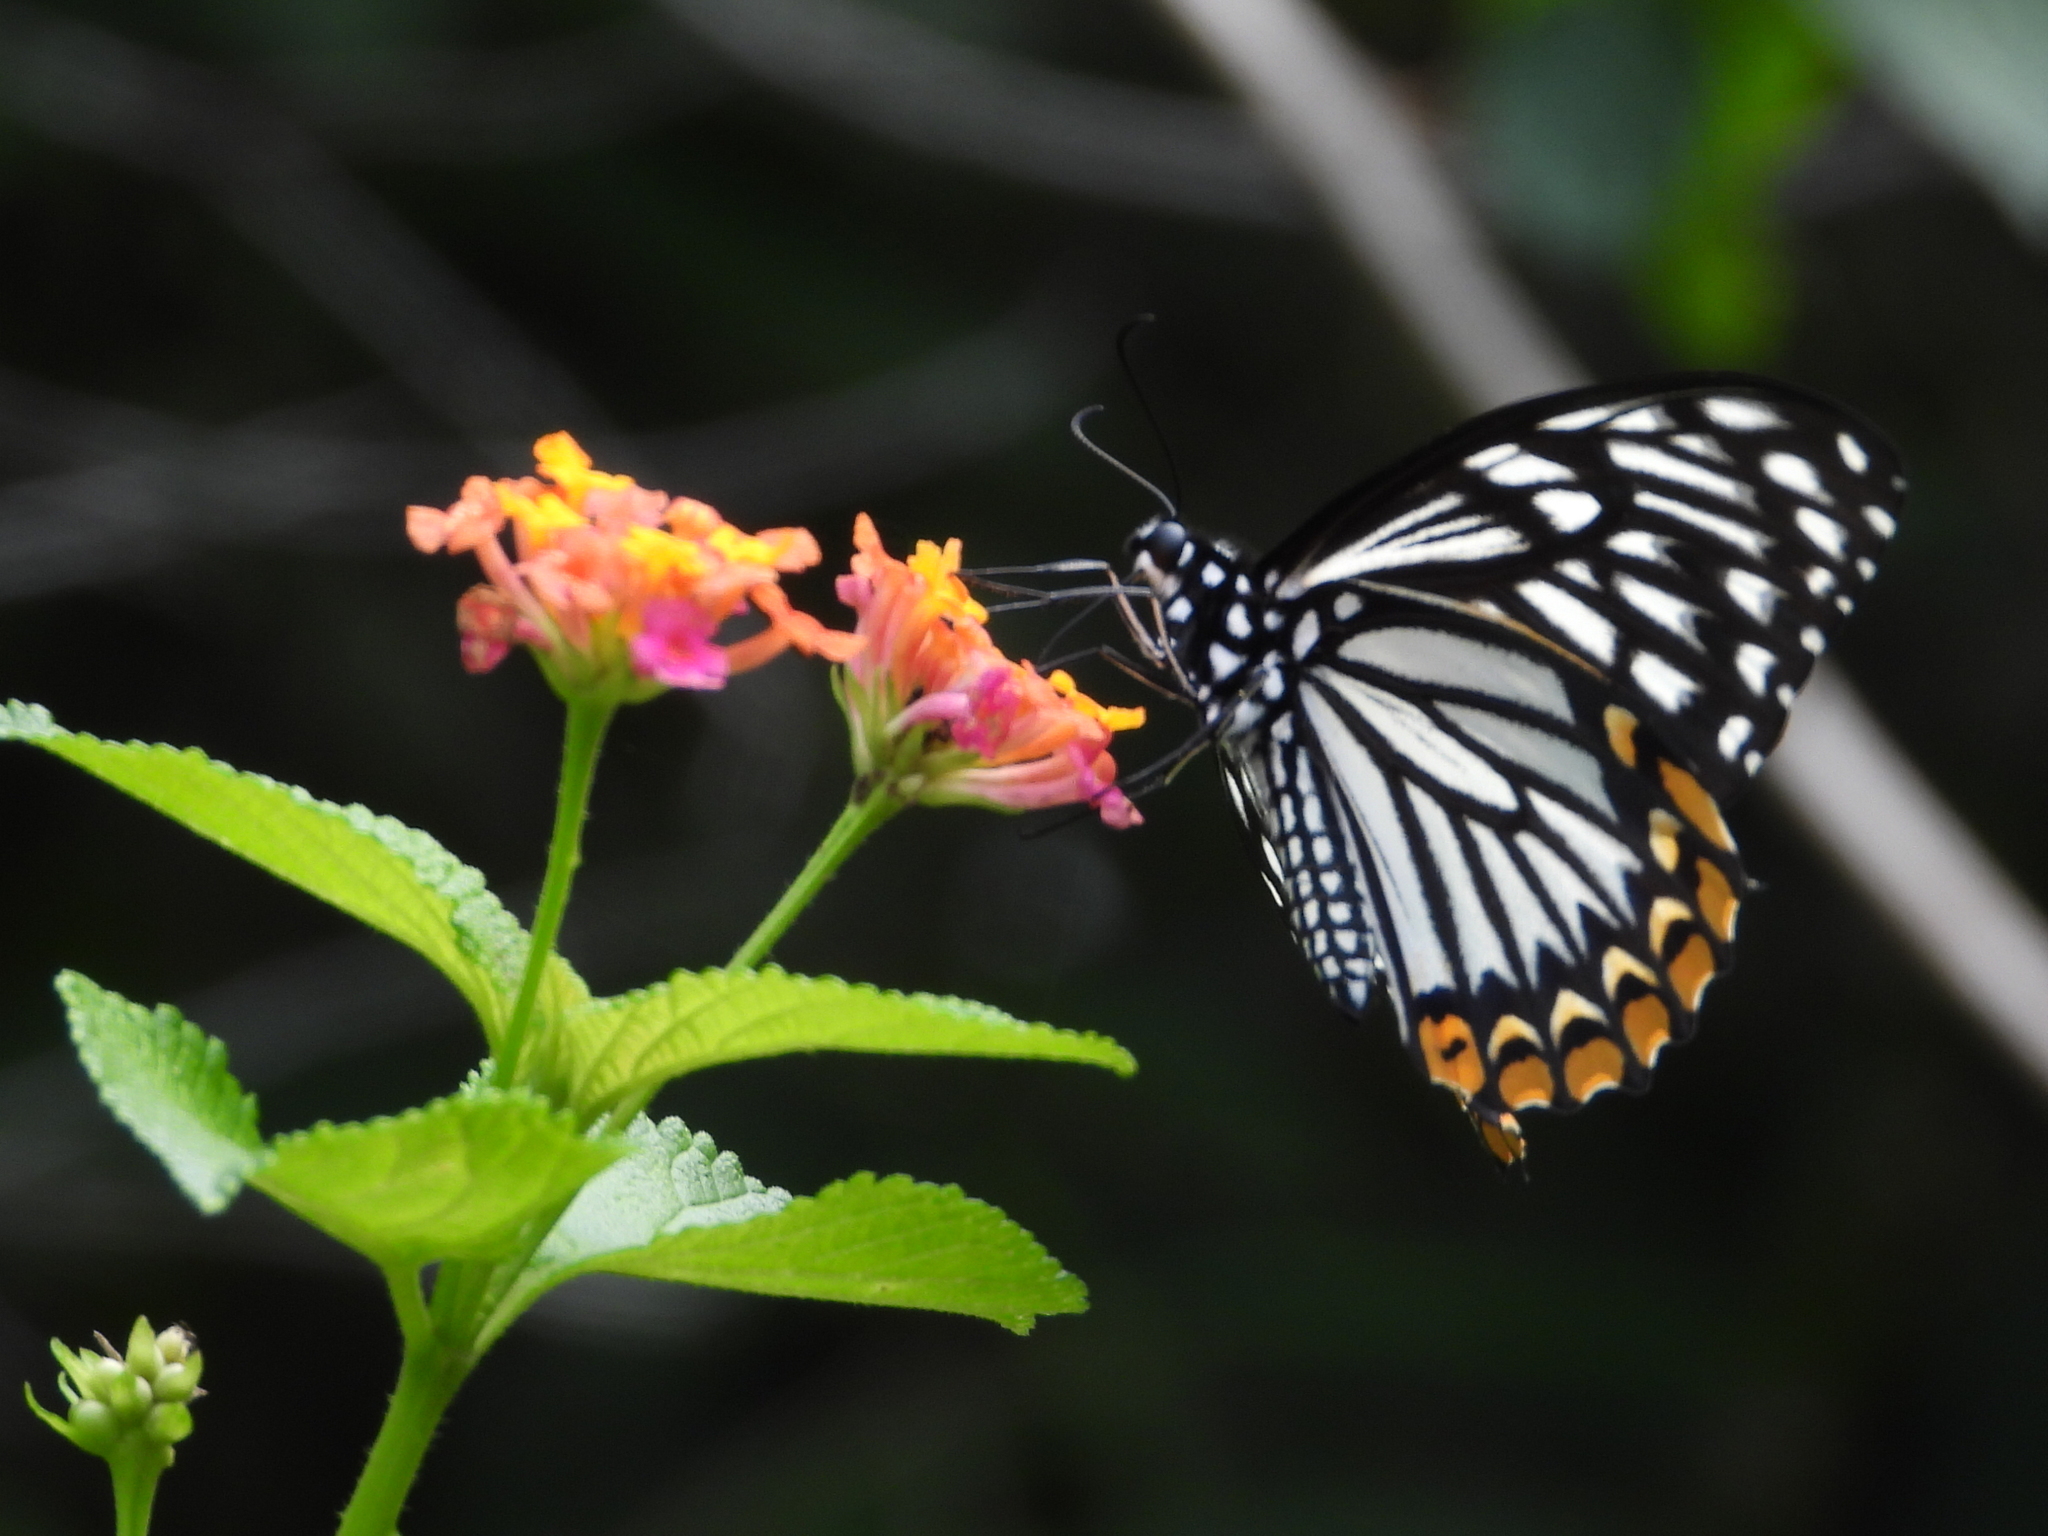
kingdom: Animalia
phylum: Arthropoda
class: Insecta
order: Lepidoptera
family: Papilionidae
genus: Chilasa
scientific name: Chilasa clytia
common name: Common mime
